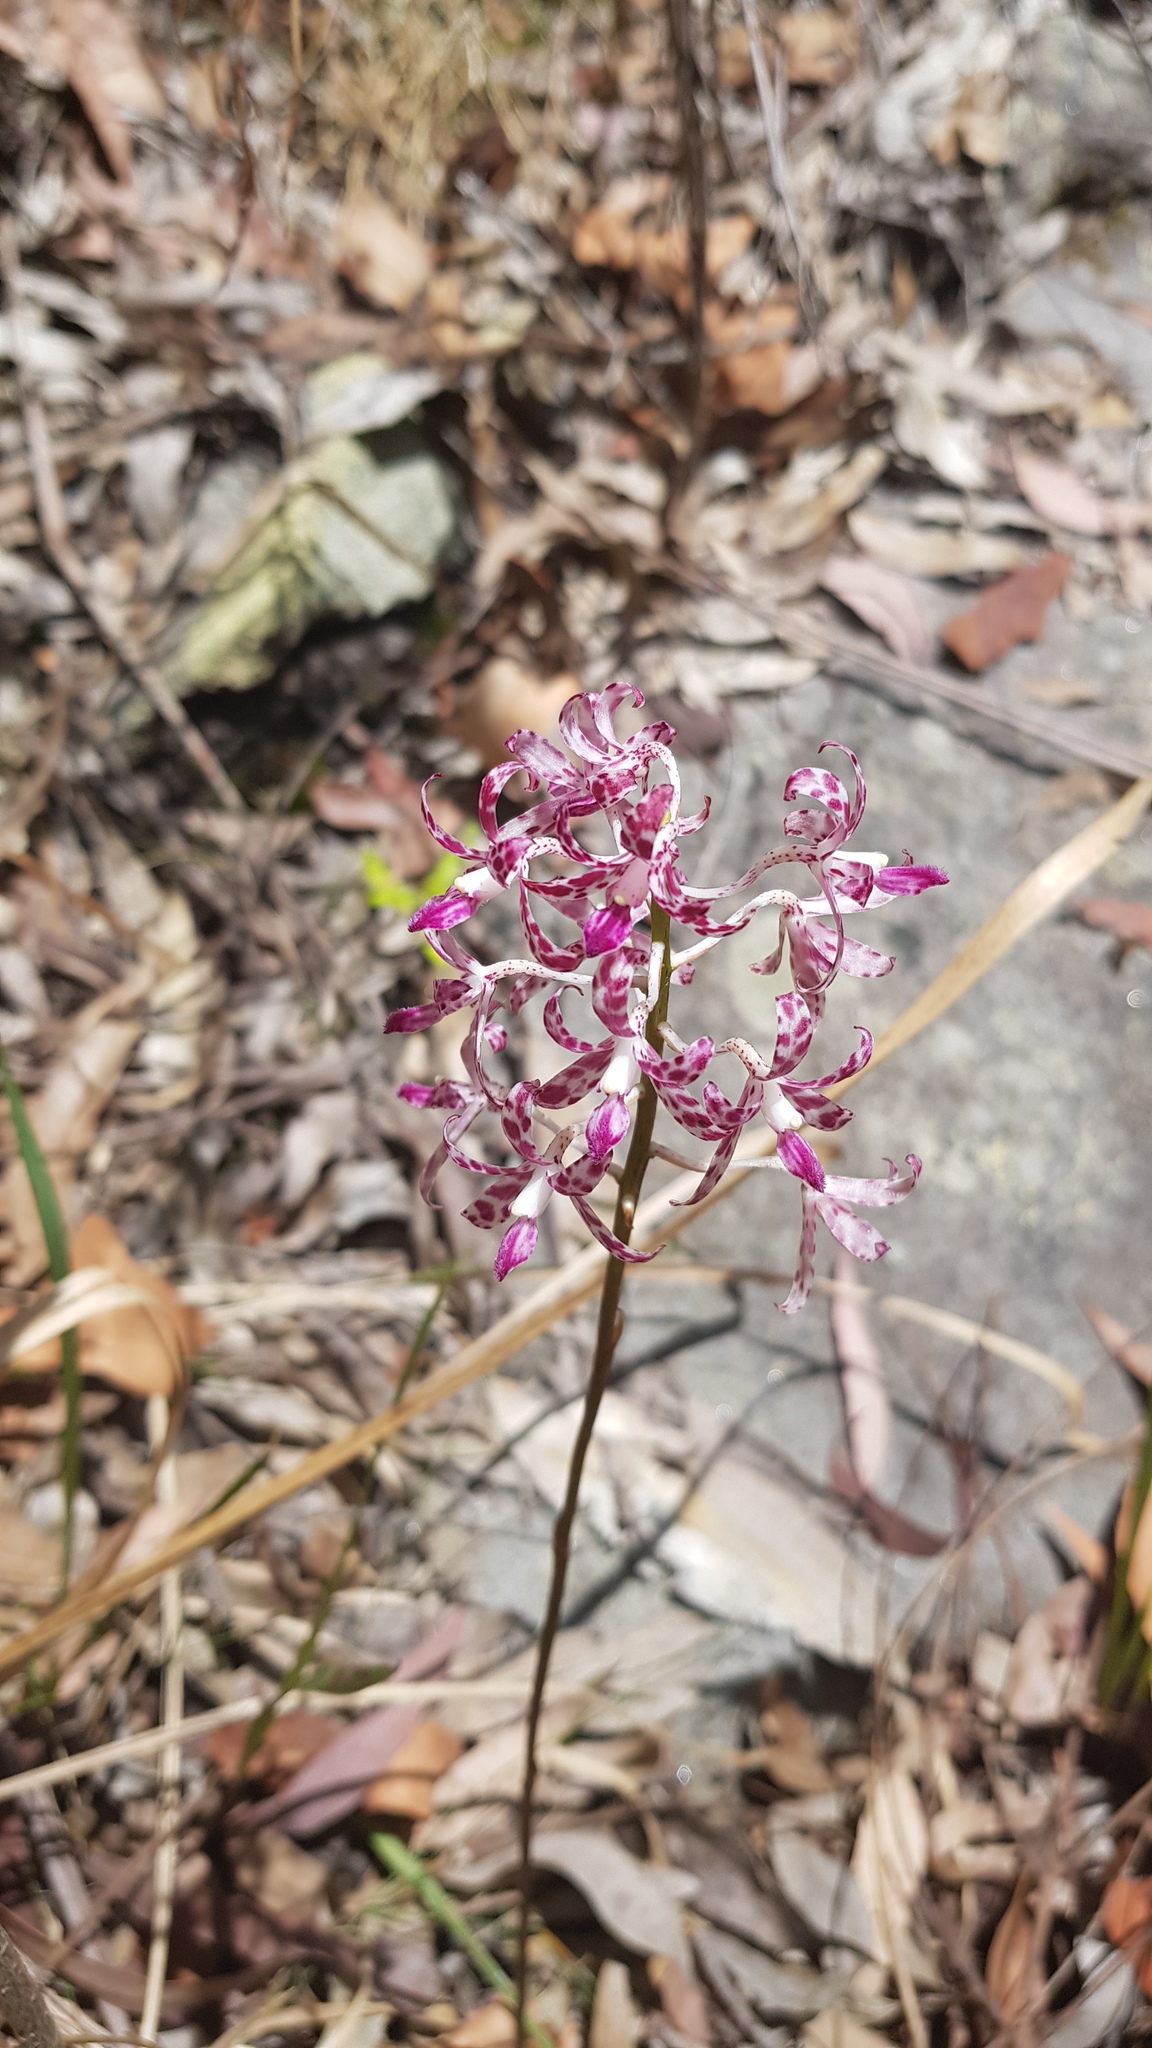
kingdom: Plantae
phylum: Tracheophyta
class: Liliopsida
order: Asparagales
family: Orchidaceae
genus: Dipodium
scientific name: Dipodium variegatum
